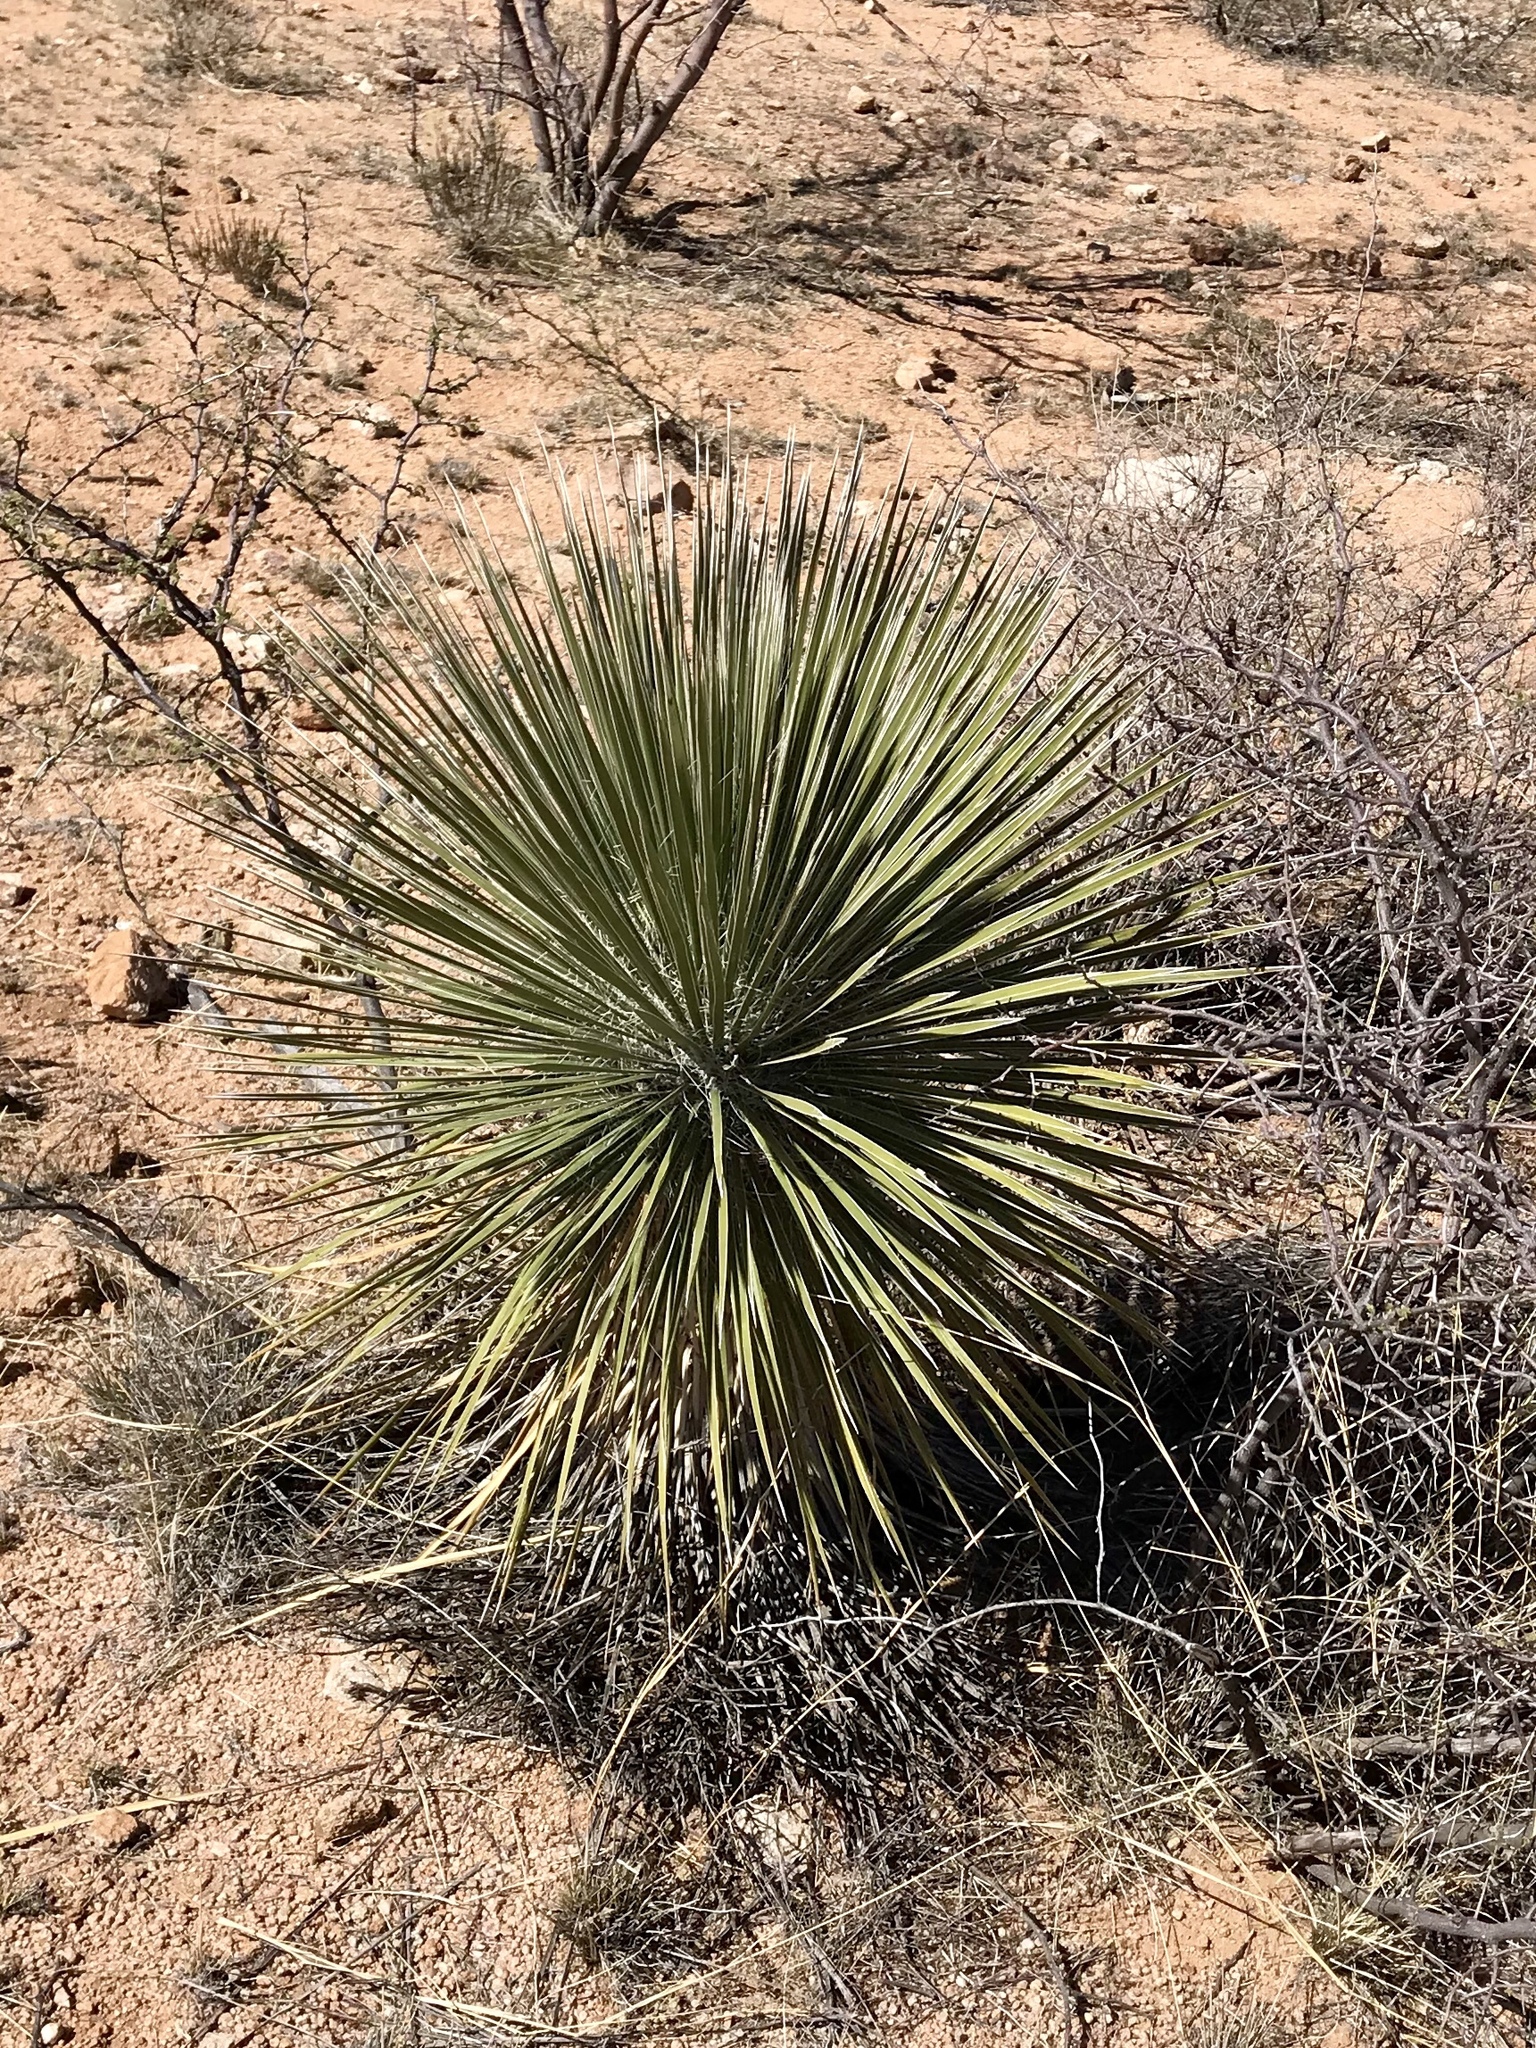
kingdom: Plantae
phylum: Tracheophyta
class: Liliopsida
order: Asparagales
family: Asparagaceae
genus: Yucca
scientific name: Yucca elata
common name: Palmella
